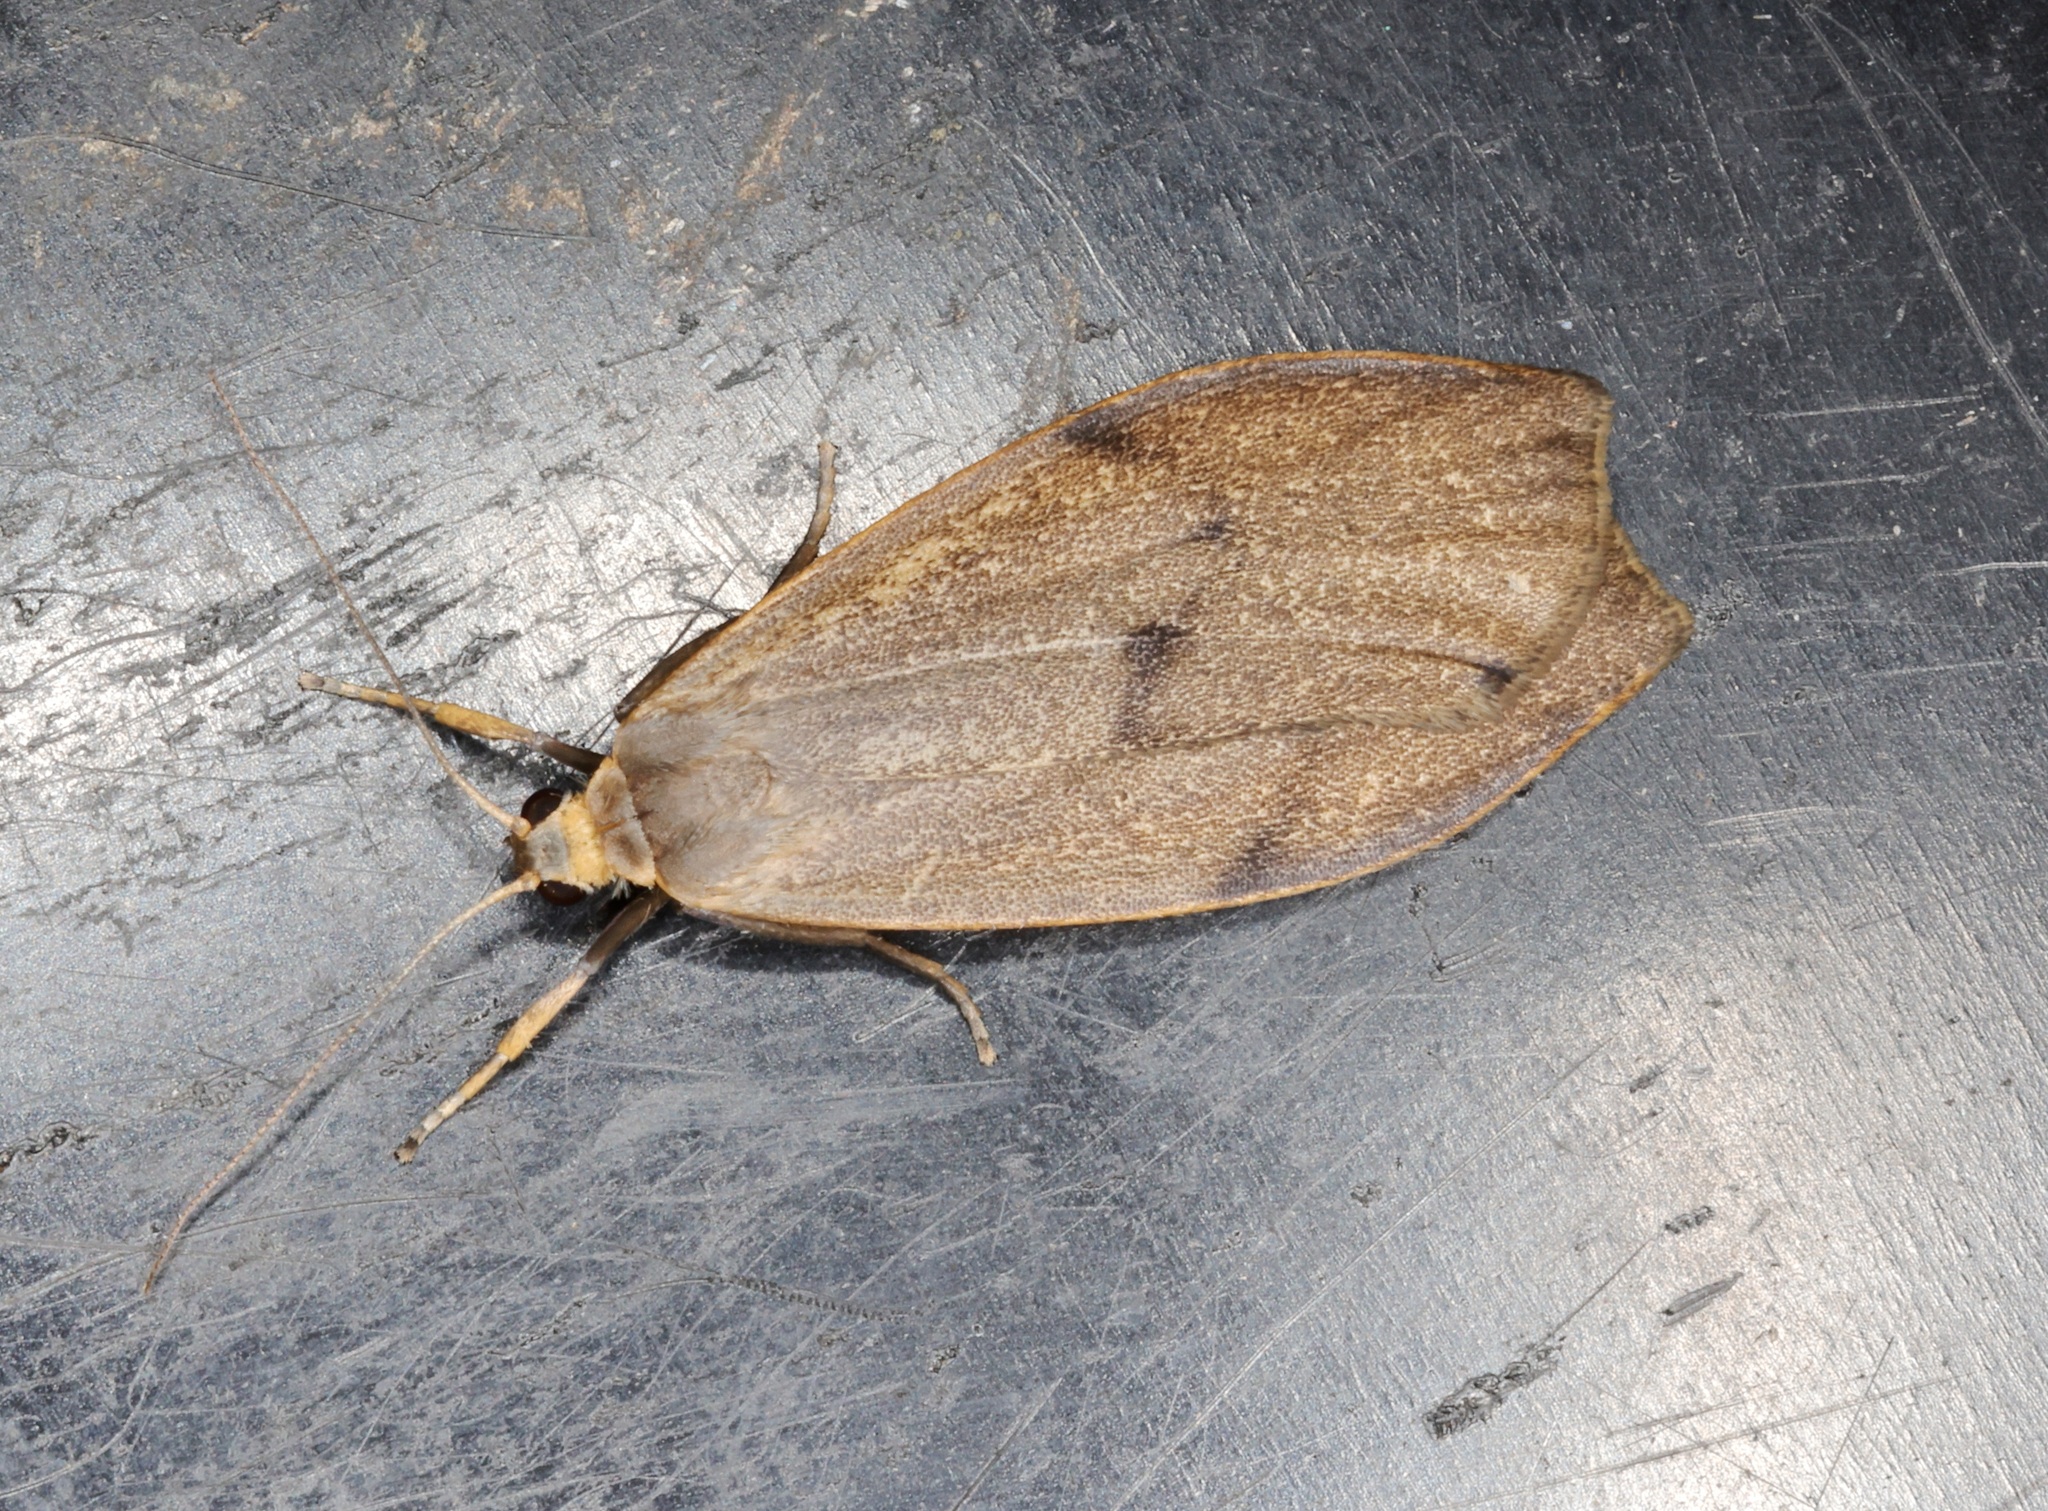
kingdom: Animalia
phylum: Arthropoda
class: Insecta
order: Lepidoptera
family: Erebidae
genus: Gampola
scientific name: Gampola sinica
